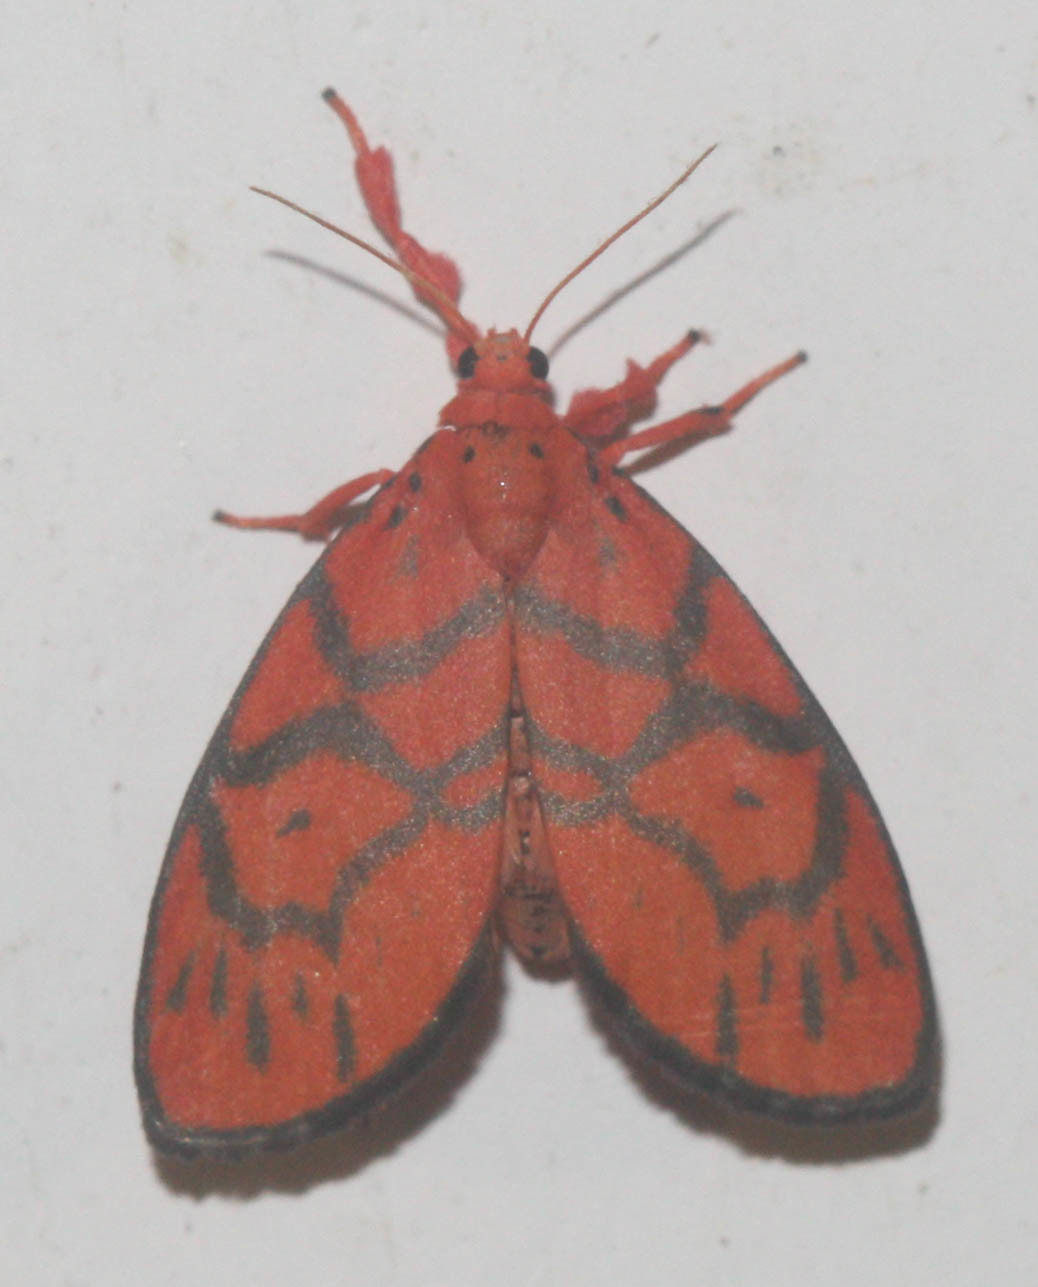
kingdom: Animalia
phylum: Arthropoda
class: Insecta
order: Lepidoptera
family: Erebidae
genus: Cornicornuta
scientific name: Cornicornuta convexa
